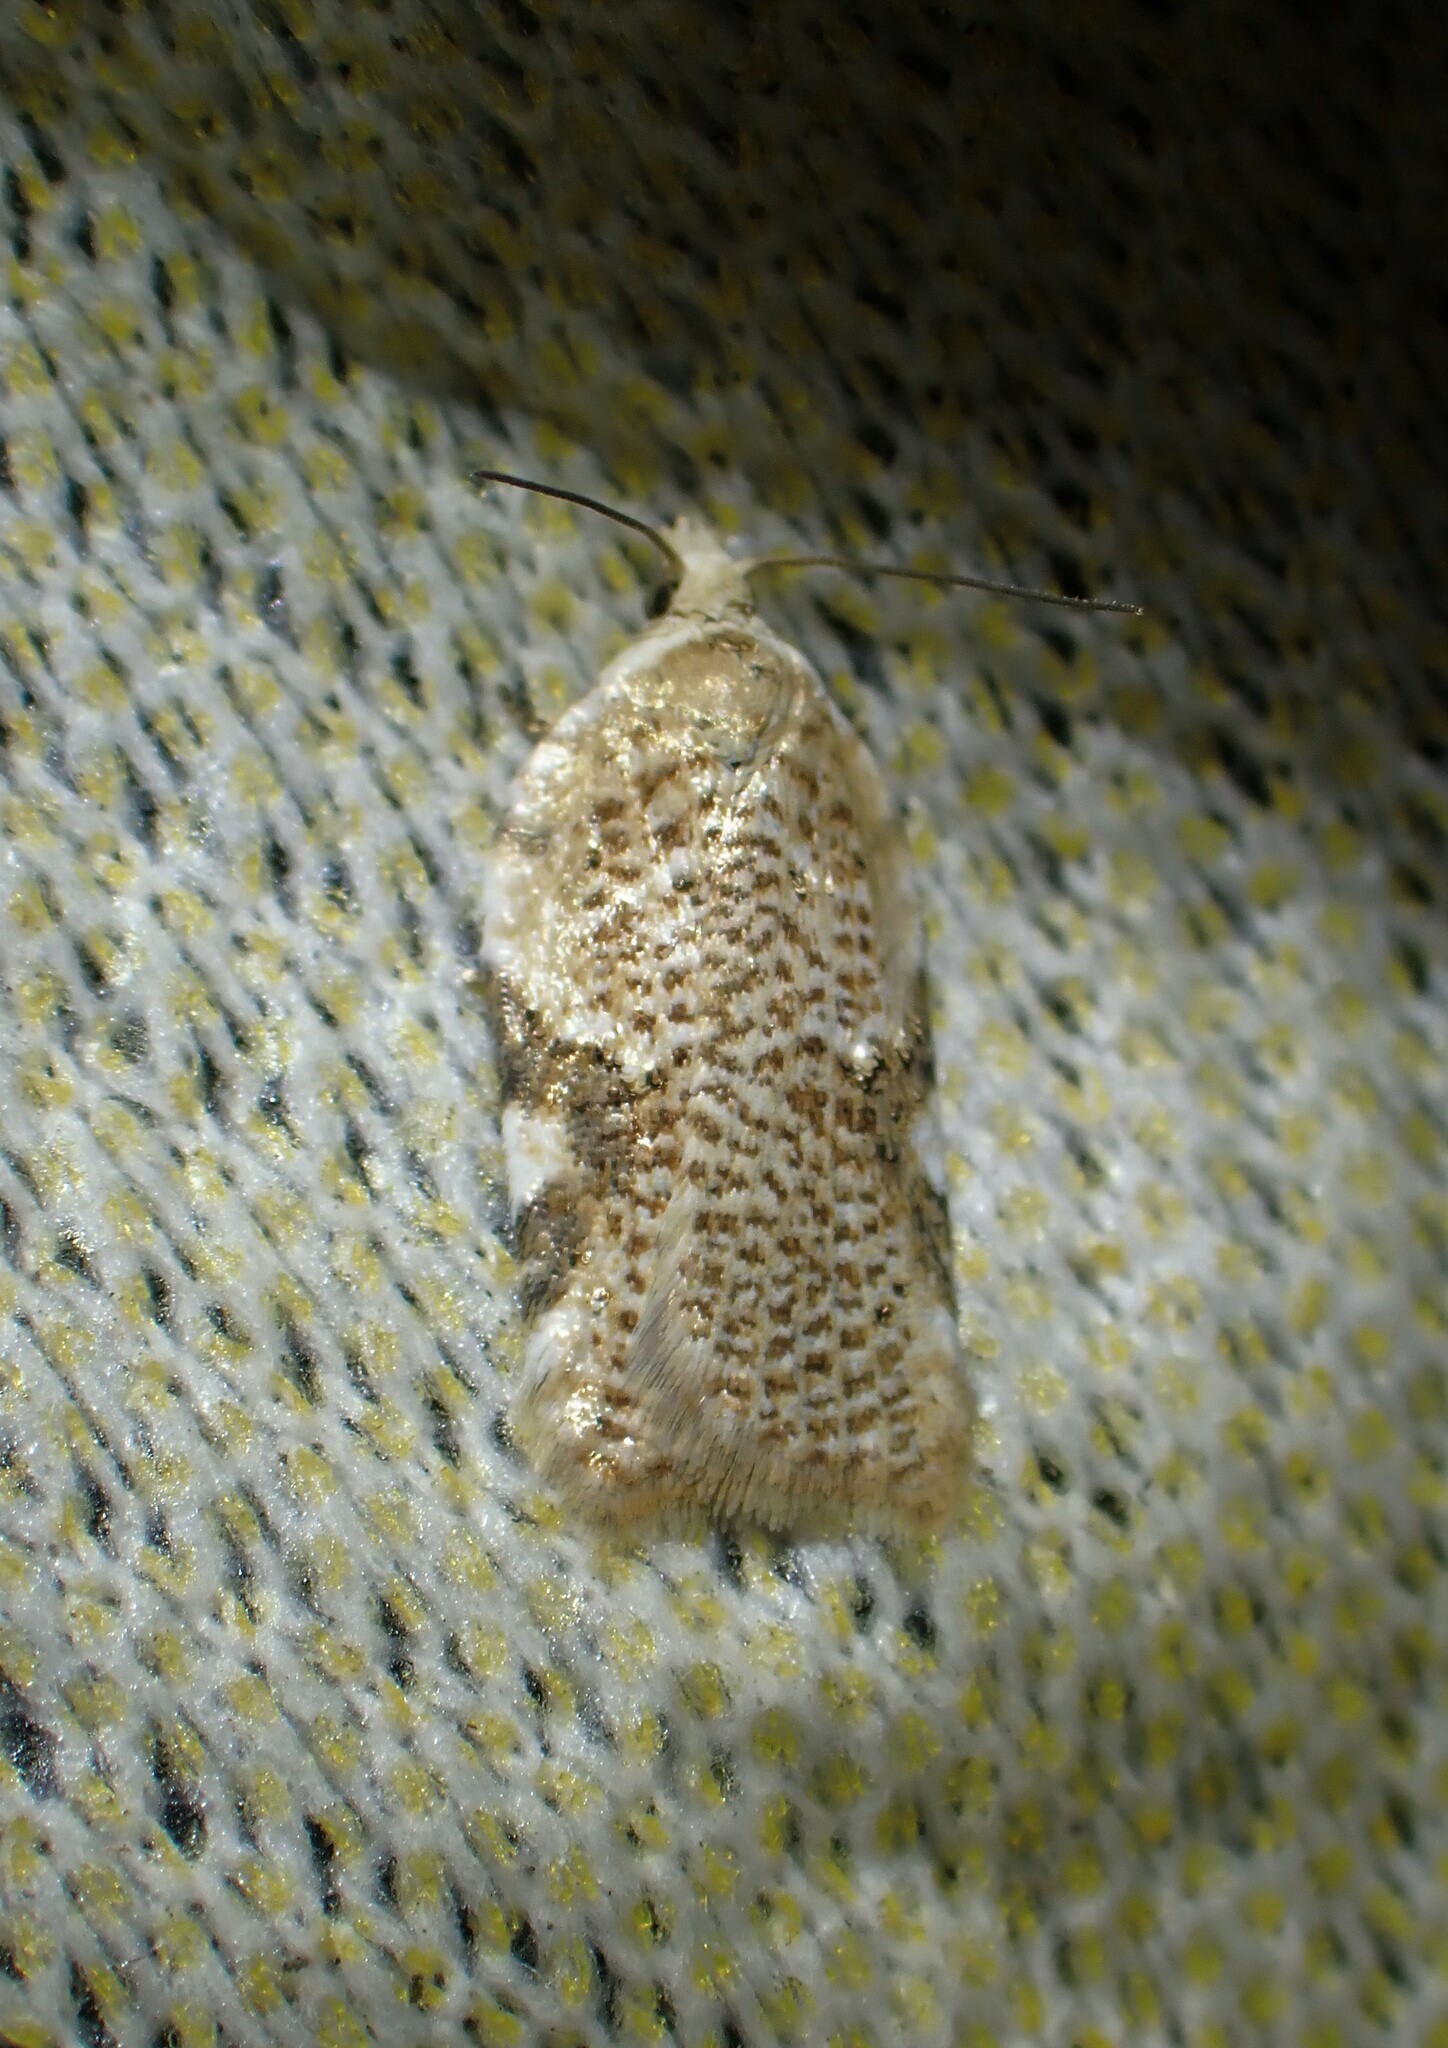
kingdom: Animalia
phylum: Arthropoda
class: Insecta
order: Lepidoptera
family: Tortricidae
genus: Acleris
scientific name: Acleris cervinana
